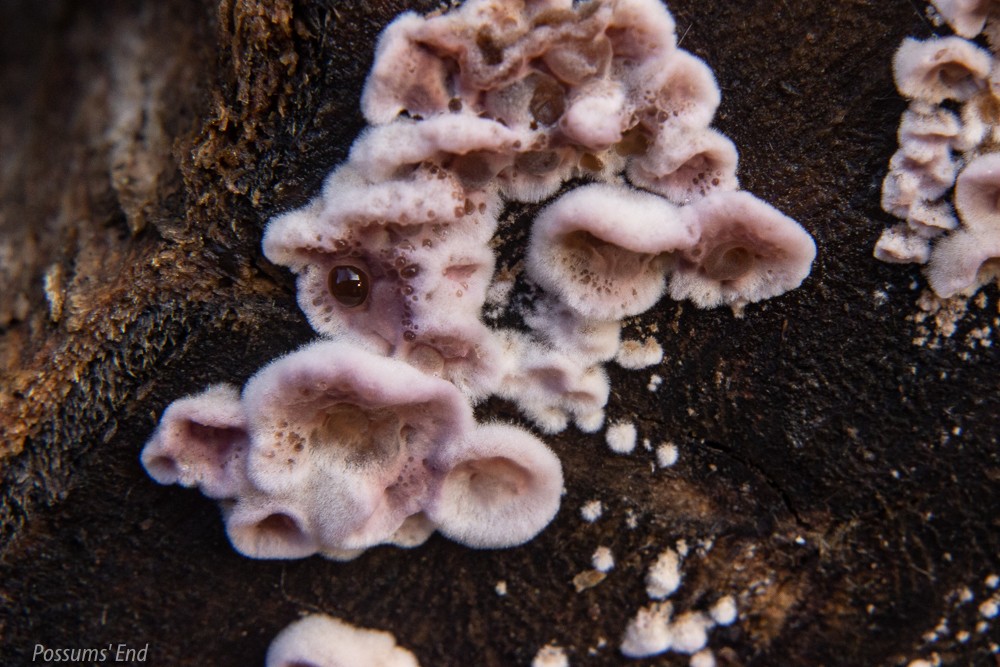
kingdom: Fungi
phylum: Basidiomycota
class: Agaricomycetes
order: Agaricales
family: Cyphellaceae
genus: Chondrostereum
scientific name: Chondrostereum purpureum
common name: Silver leaf disease
